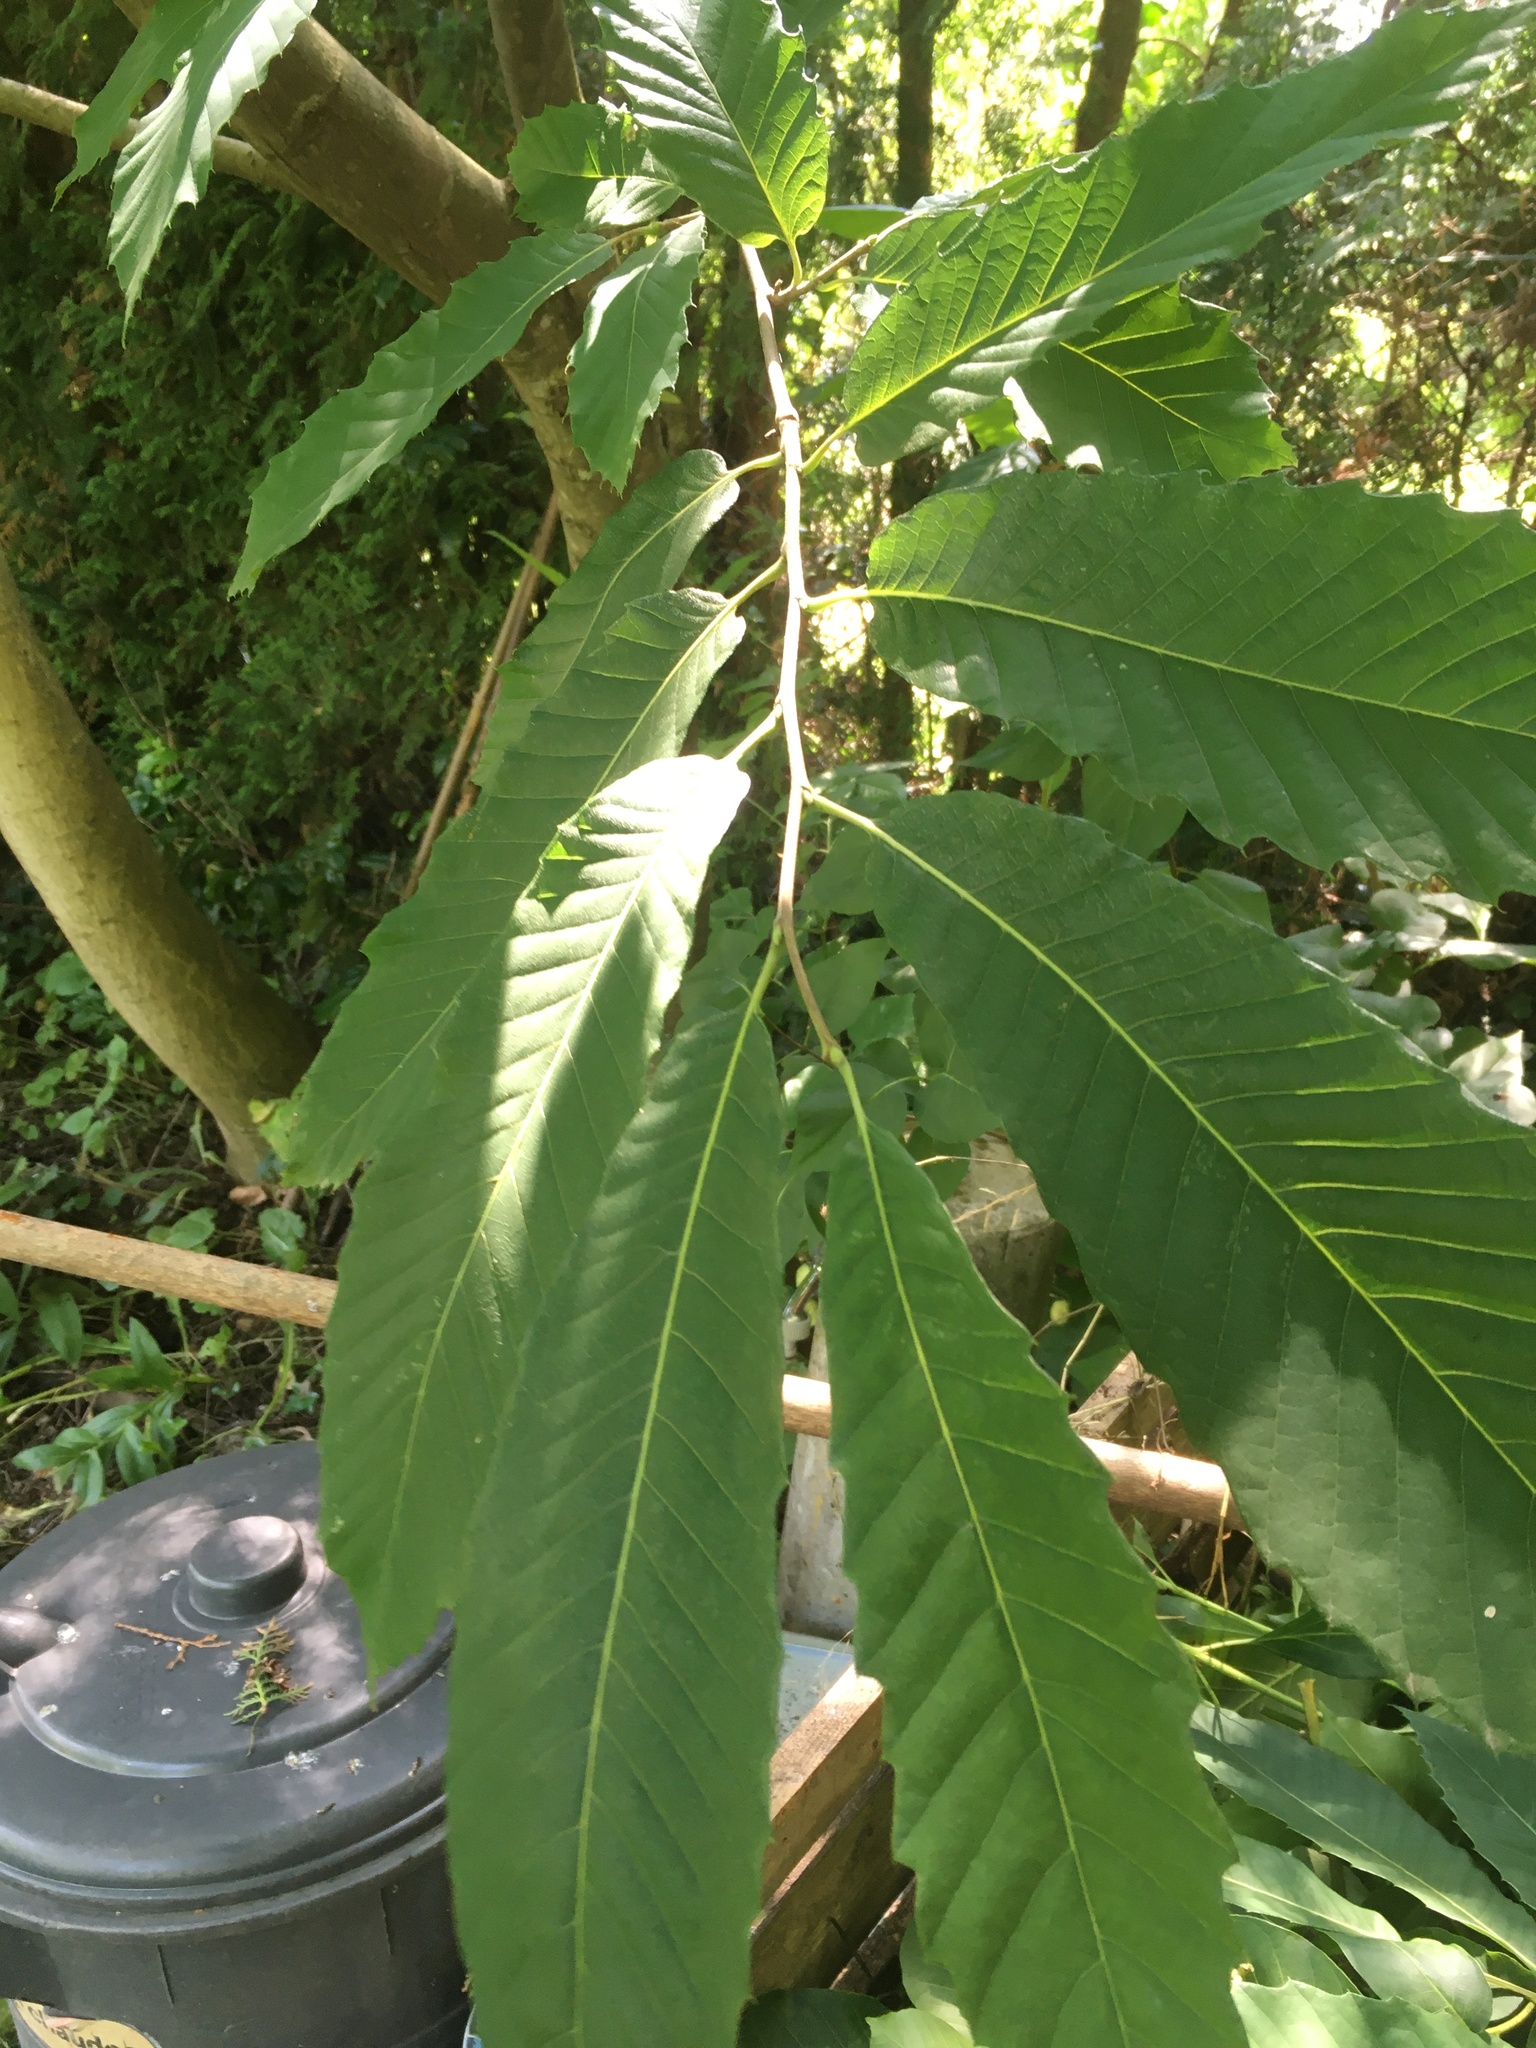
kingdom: Plantae
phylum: Tracheophyta
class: Magnoliopsida
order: Fagales
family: Fagaceae
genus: Castanea
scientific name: Castanea sativa
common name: Sweet chestnut
